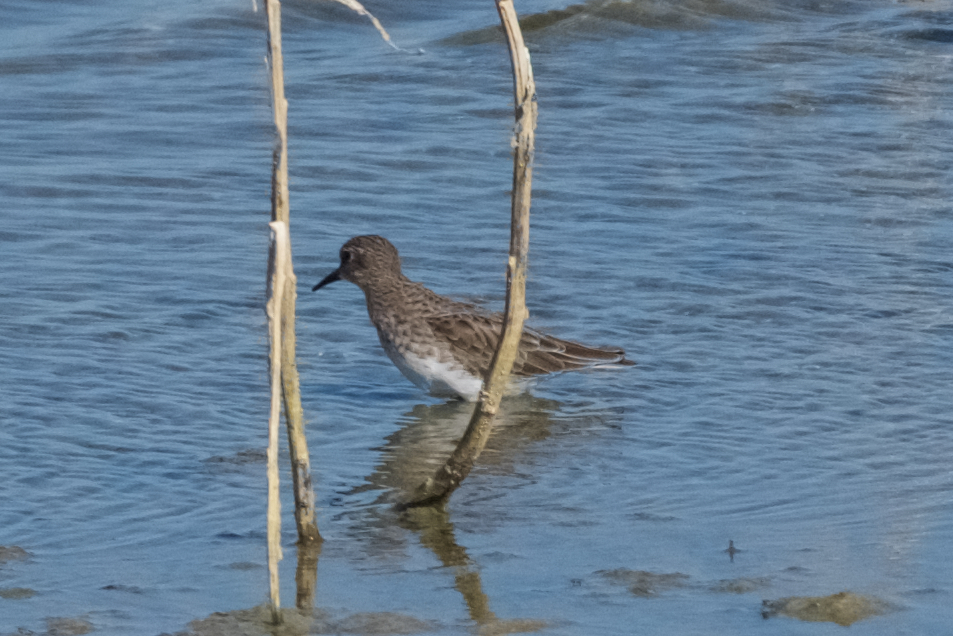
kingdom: Animalia
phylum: Chordata
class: Aves
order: Charadriiformes
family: Scolopacidae
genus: Calidris
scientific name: Calidris minutilla
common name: Least sandpiper
